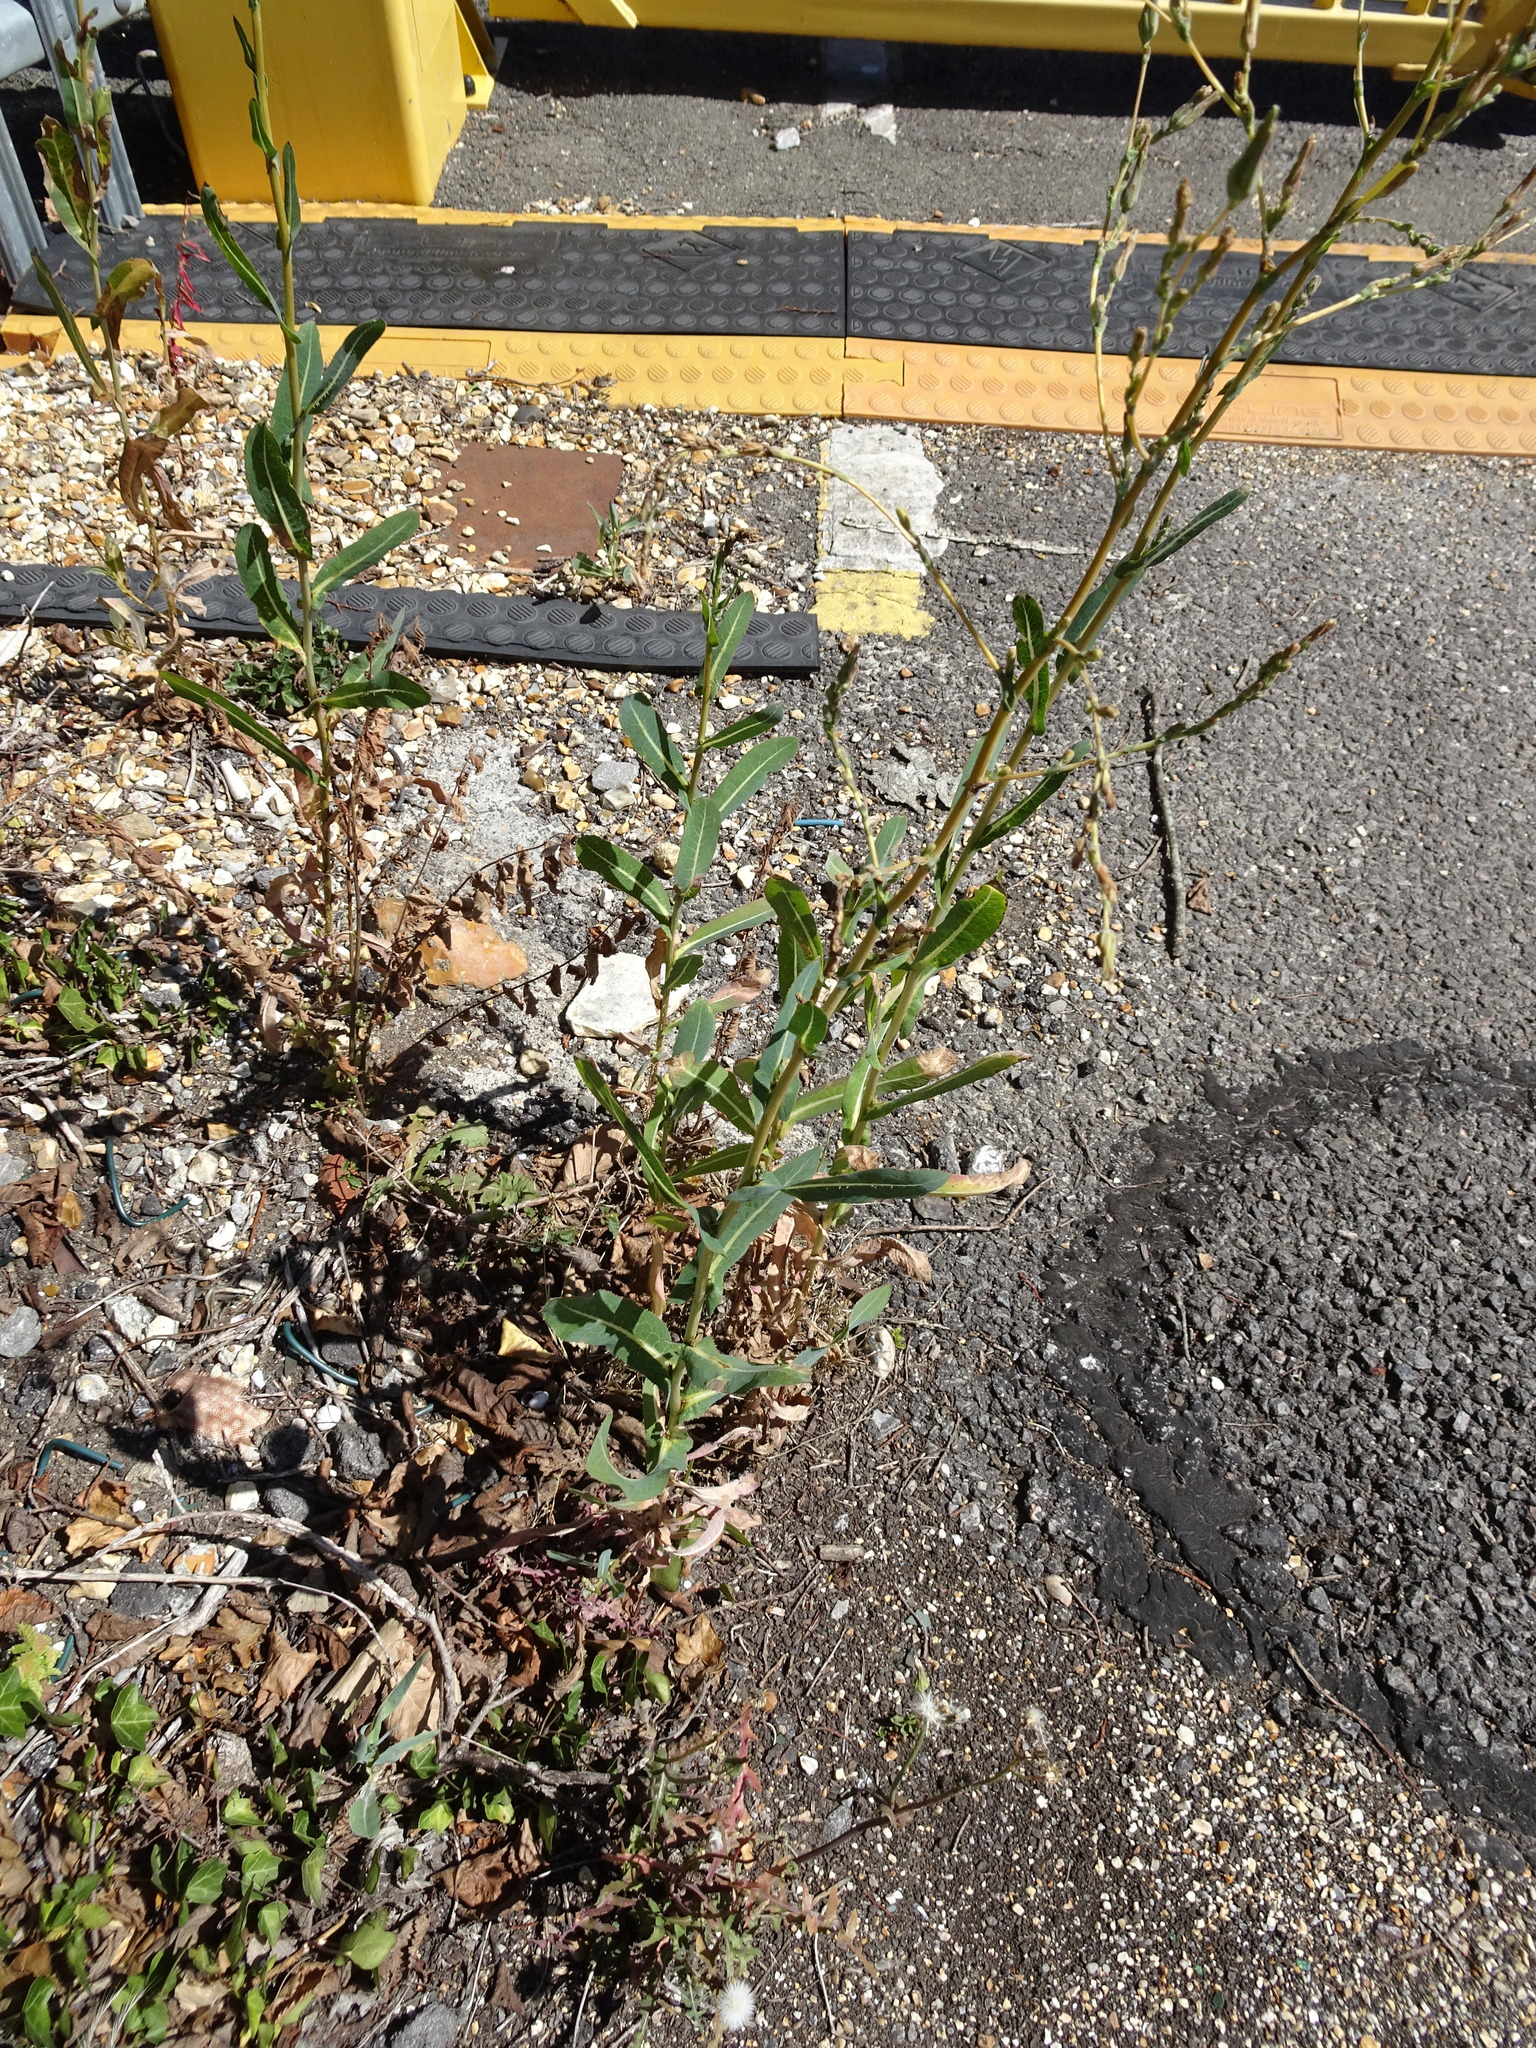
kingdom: Plantae
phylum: Tracheophyta
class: Magnoliopsida
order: Asterales
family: Asteraceae
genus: Lactuca
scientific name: Lactuca serriola
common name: Prickly lettuce
